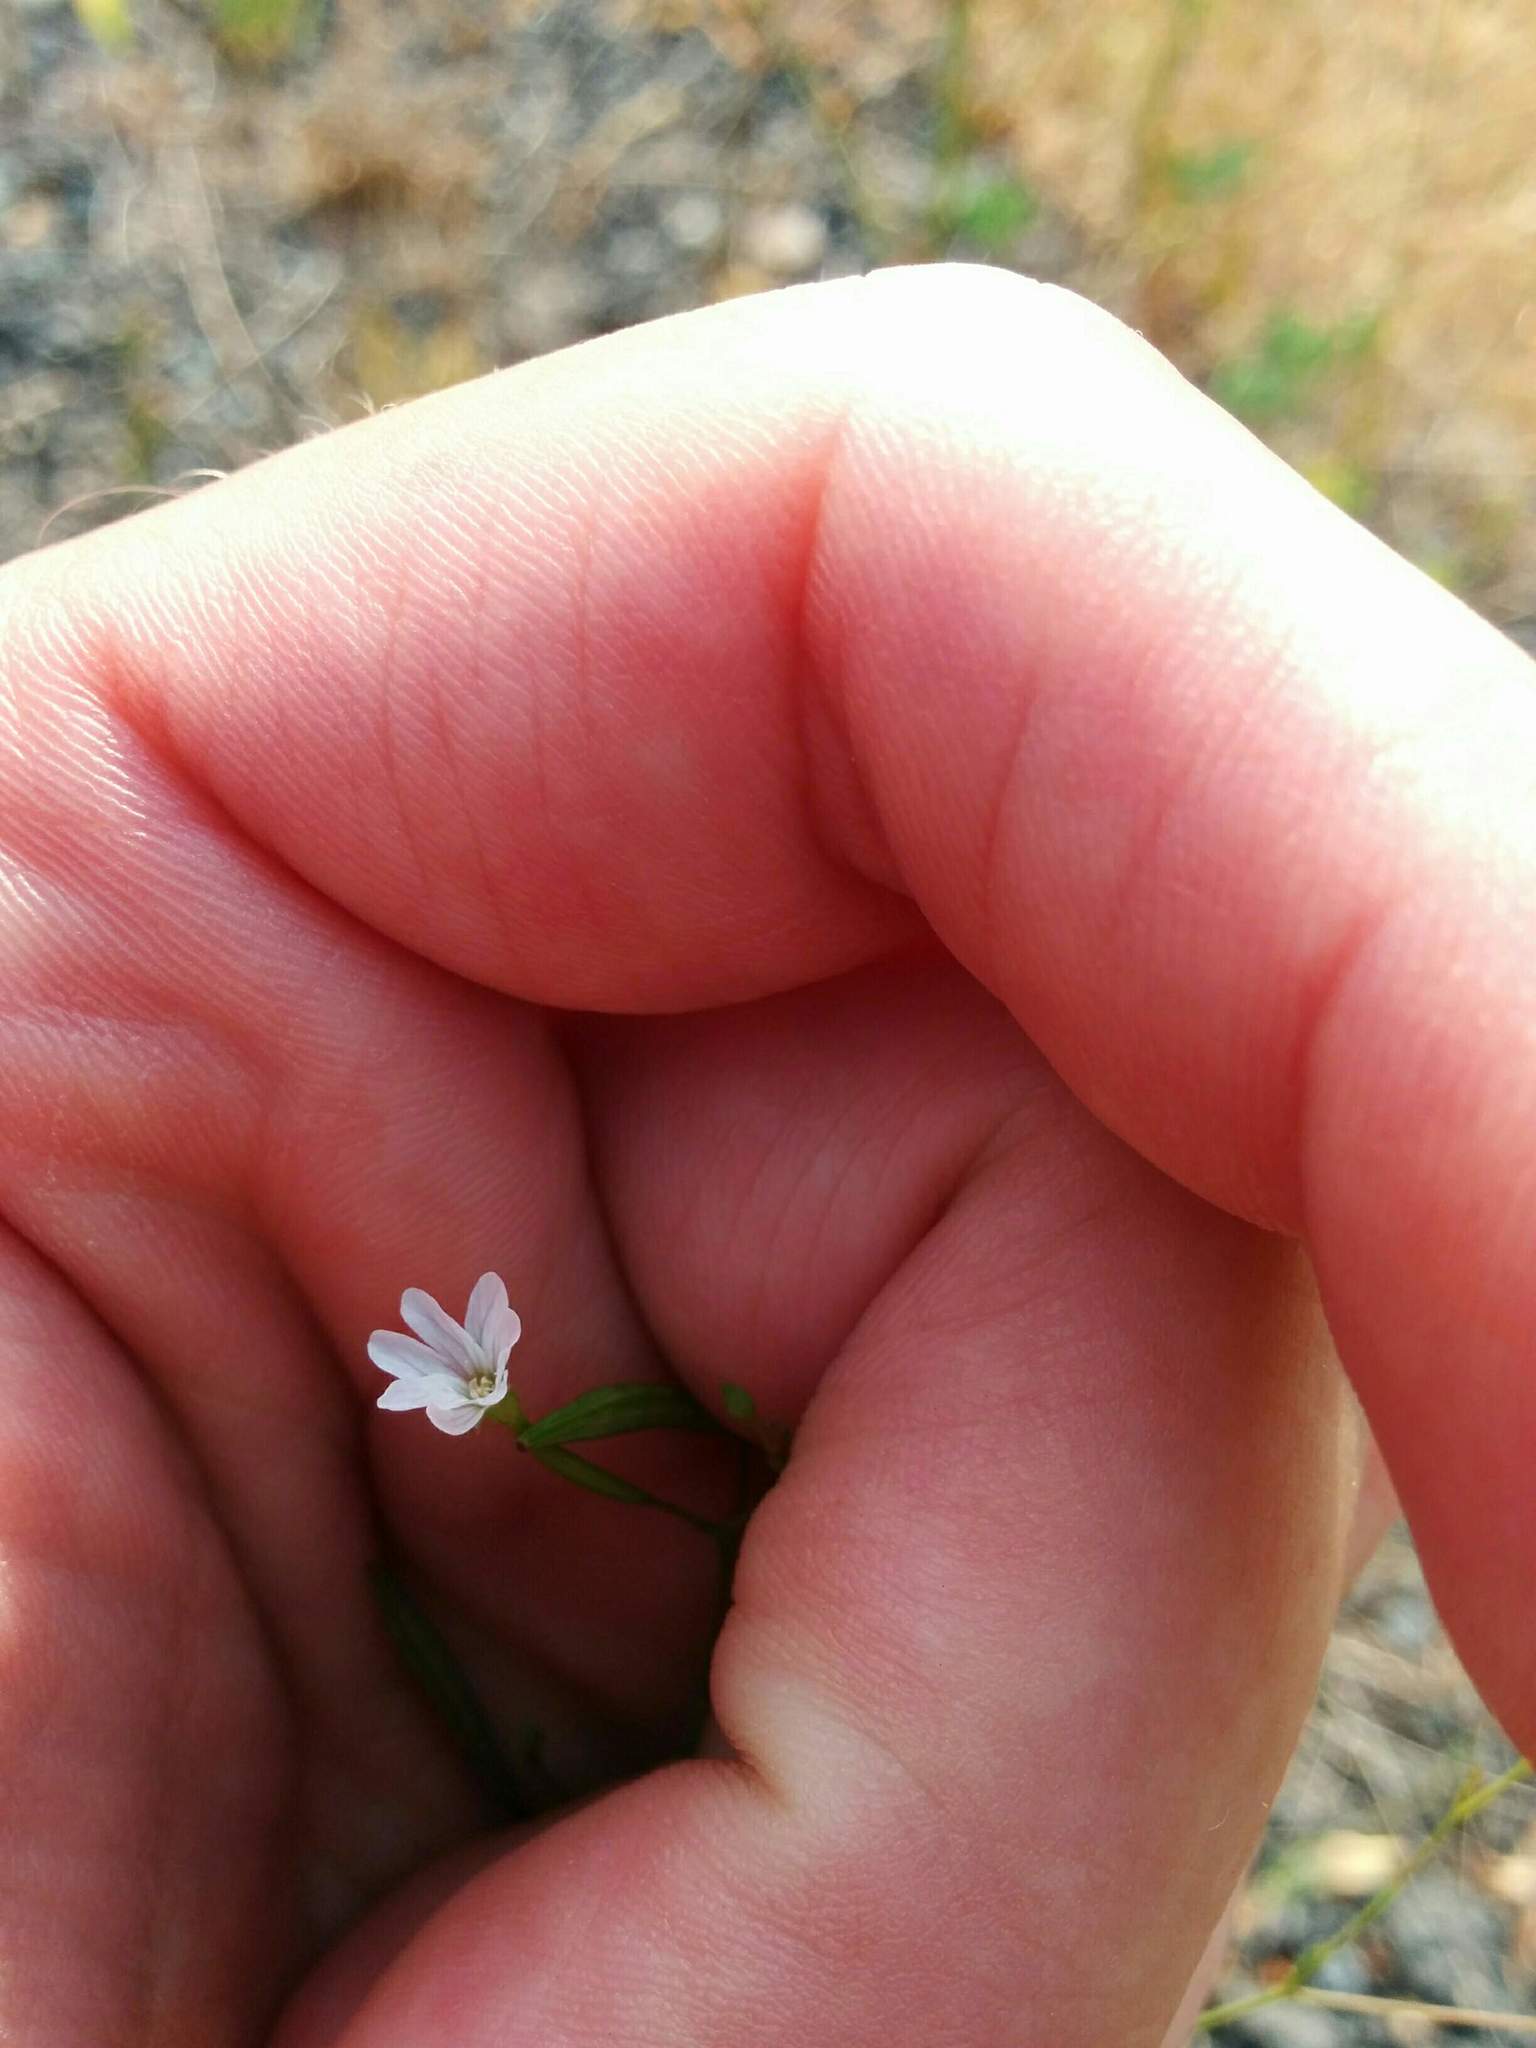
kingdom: Plantae
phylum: Tracheophyta
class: Magnoliopsida
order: Myrtales
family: Onagraceae
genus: Epilobium
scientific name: Epilobium brachycarpum
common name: Annual willowherb
